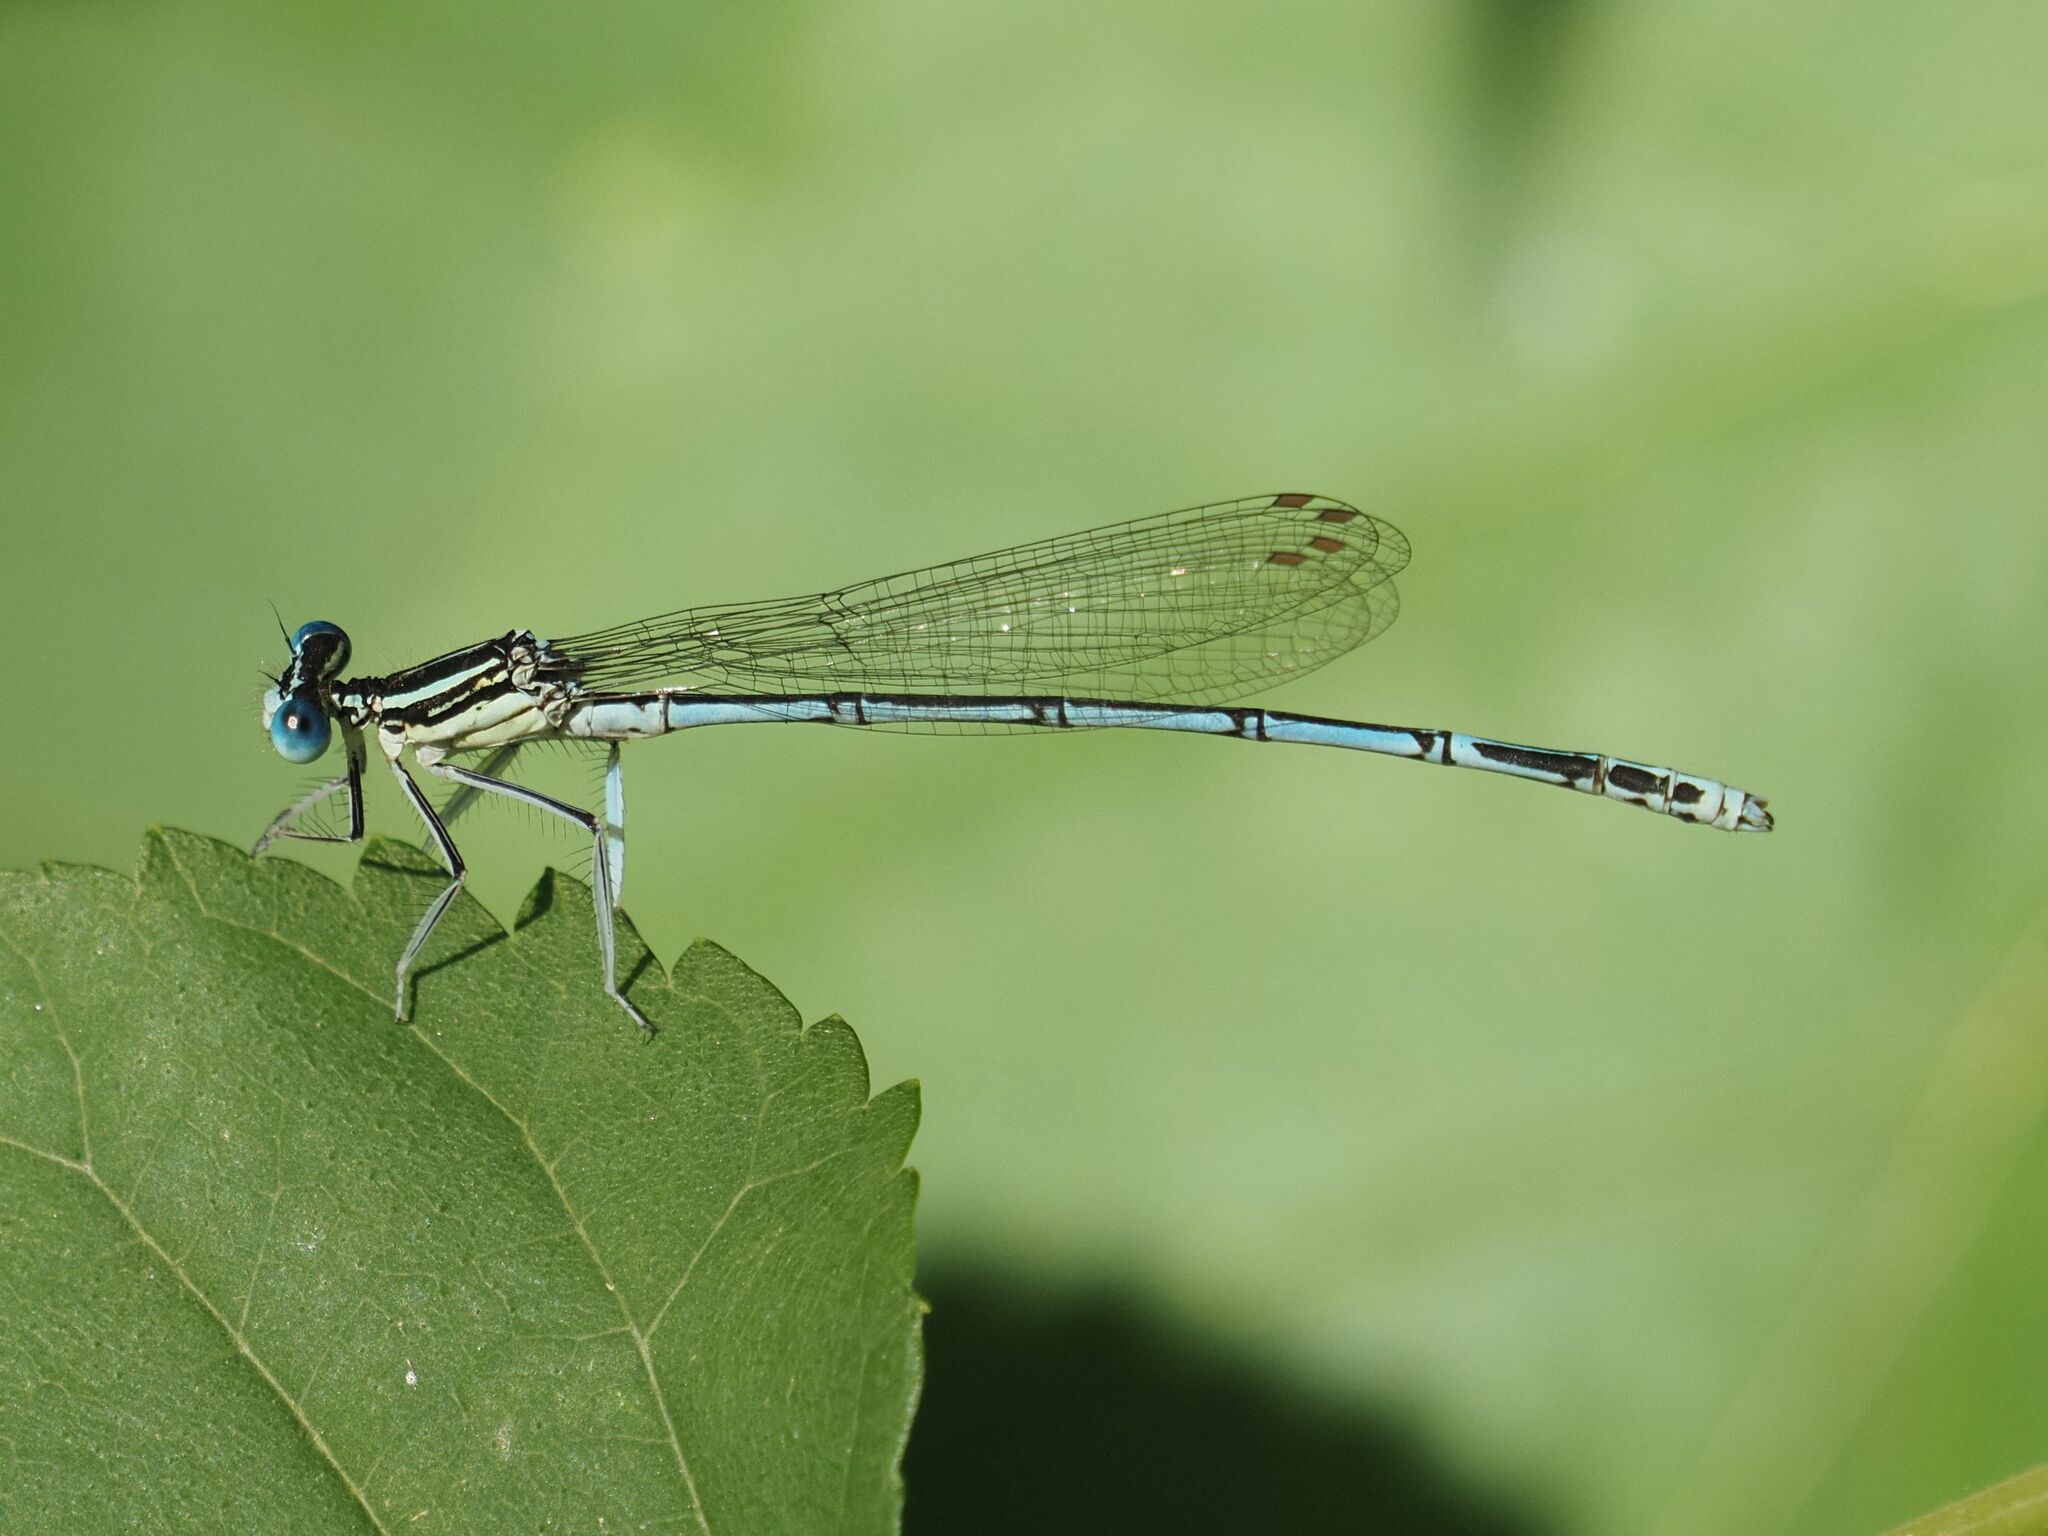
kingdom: Animalia
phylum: Arthropoda
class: Insecta
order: Odonata
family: Platycnemididae
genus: Platycnemis
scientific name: Platycnemis pennipes
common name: White-legged damselfly
